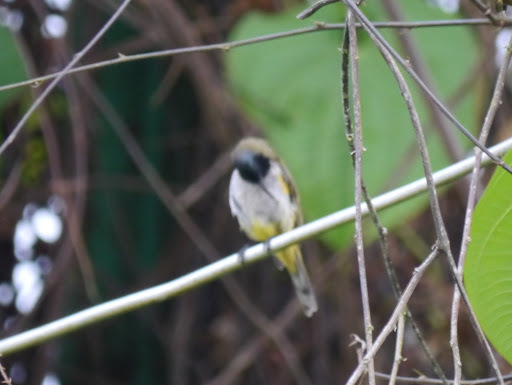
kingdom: Animalia
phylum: Chordata
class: Aves
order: Passeriformes
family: Nectariniidae
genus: Anabathmis
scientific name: Anabathmis reichenbachii
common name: Reichenbach's sunbird
